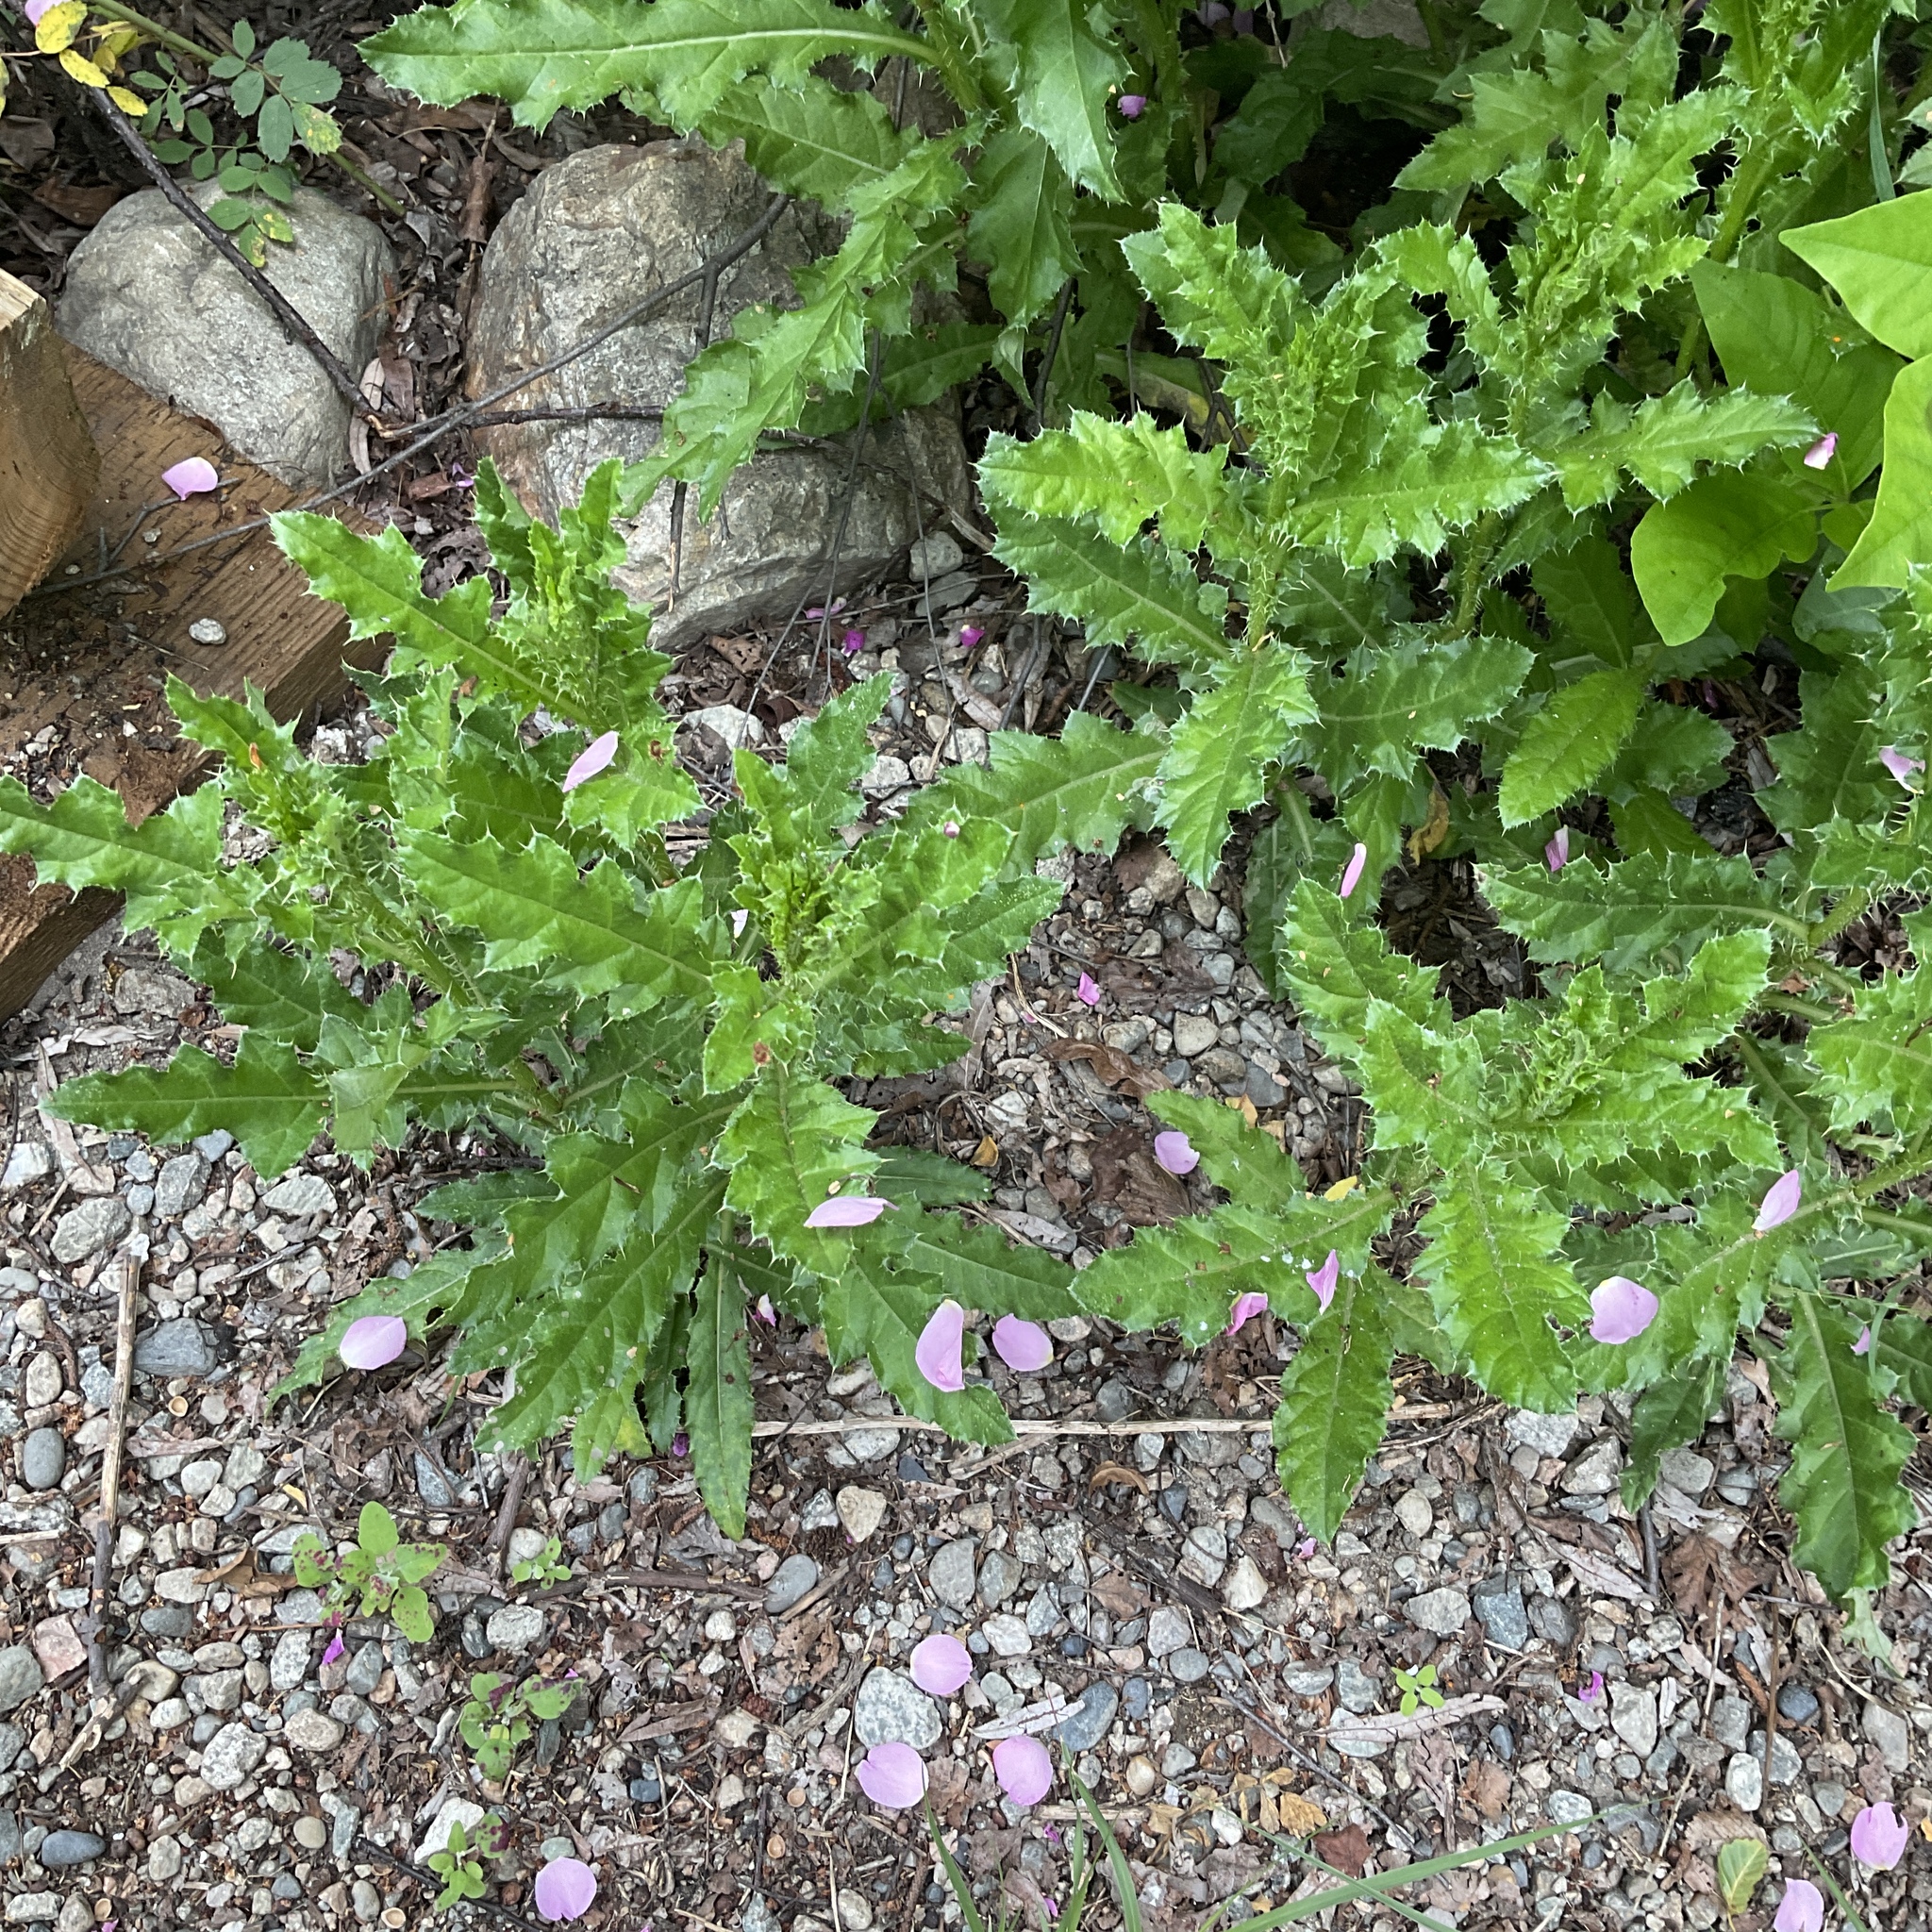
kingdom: Plantae
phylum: Tracheophyta
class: Magnoliopsida
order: Asterales
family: Asteraceae
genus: Cirsium
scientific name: Cirsium arvense
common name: Creeping thistle
